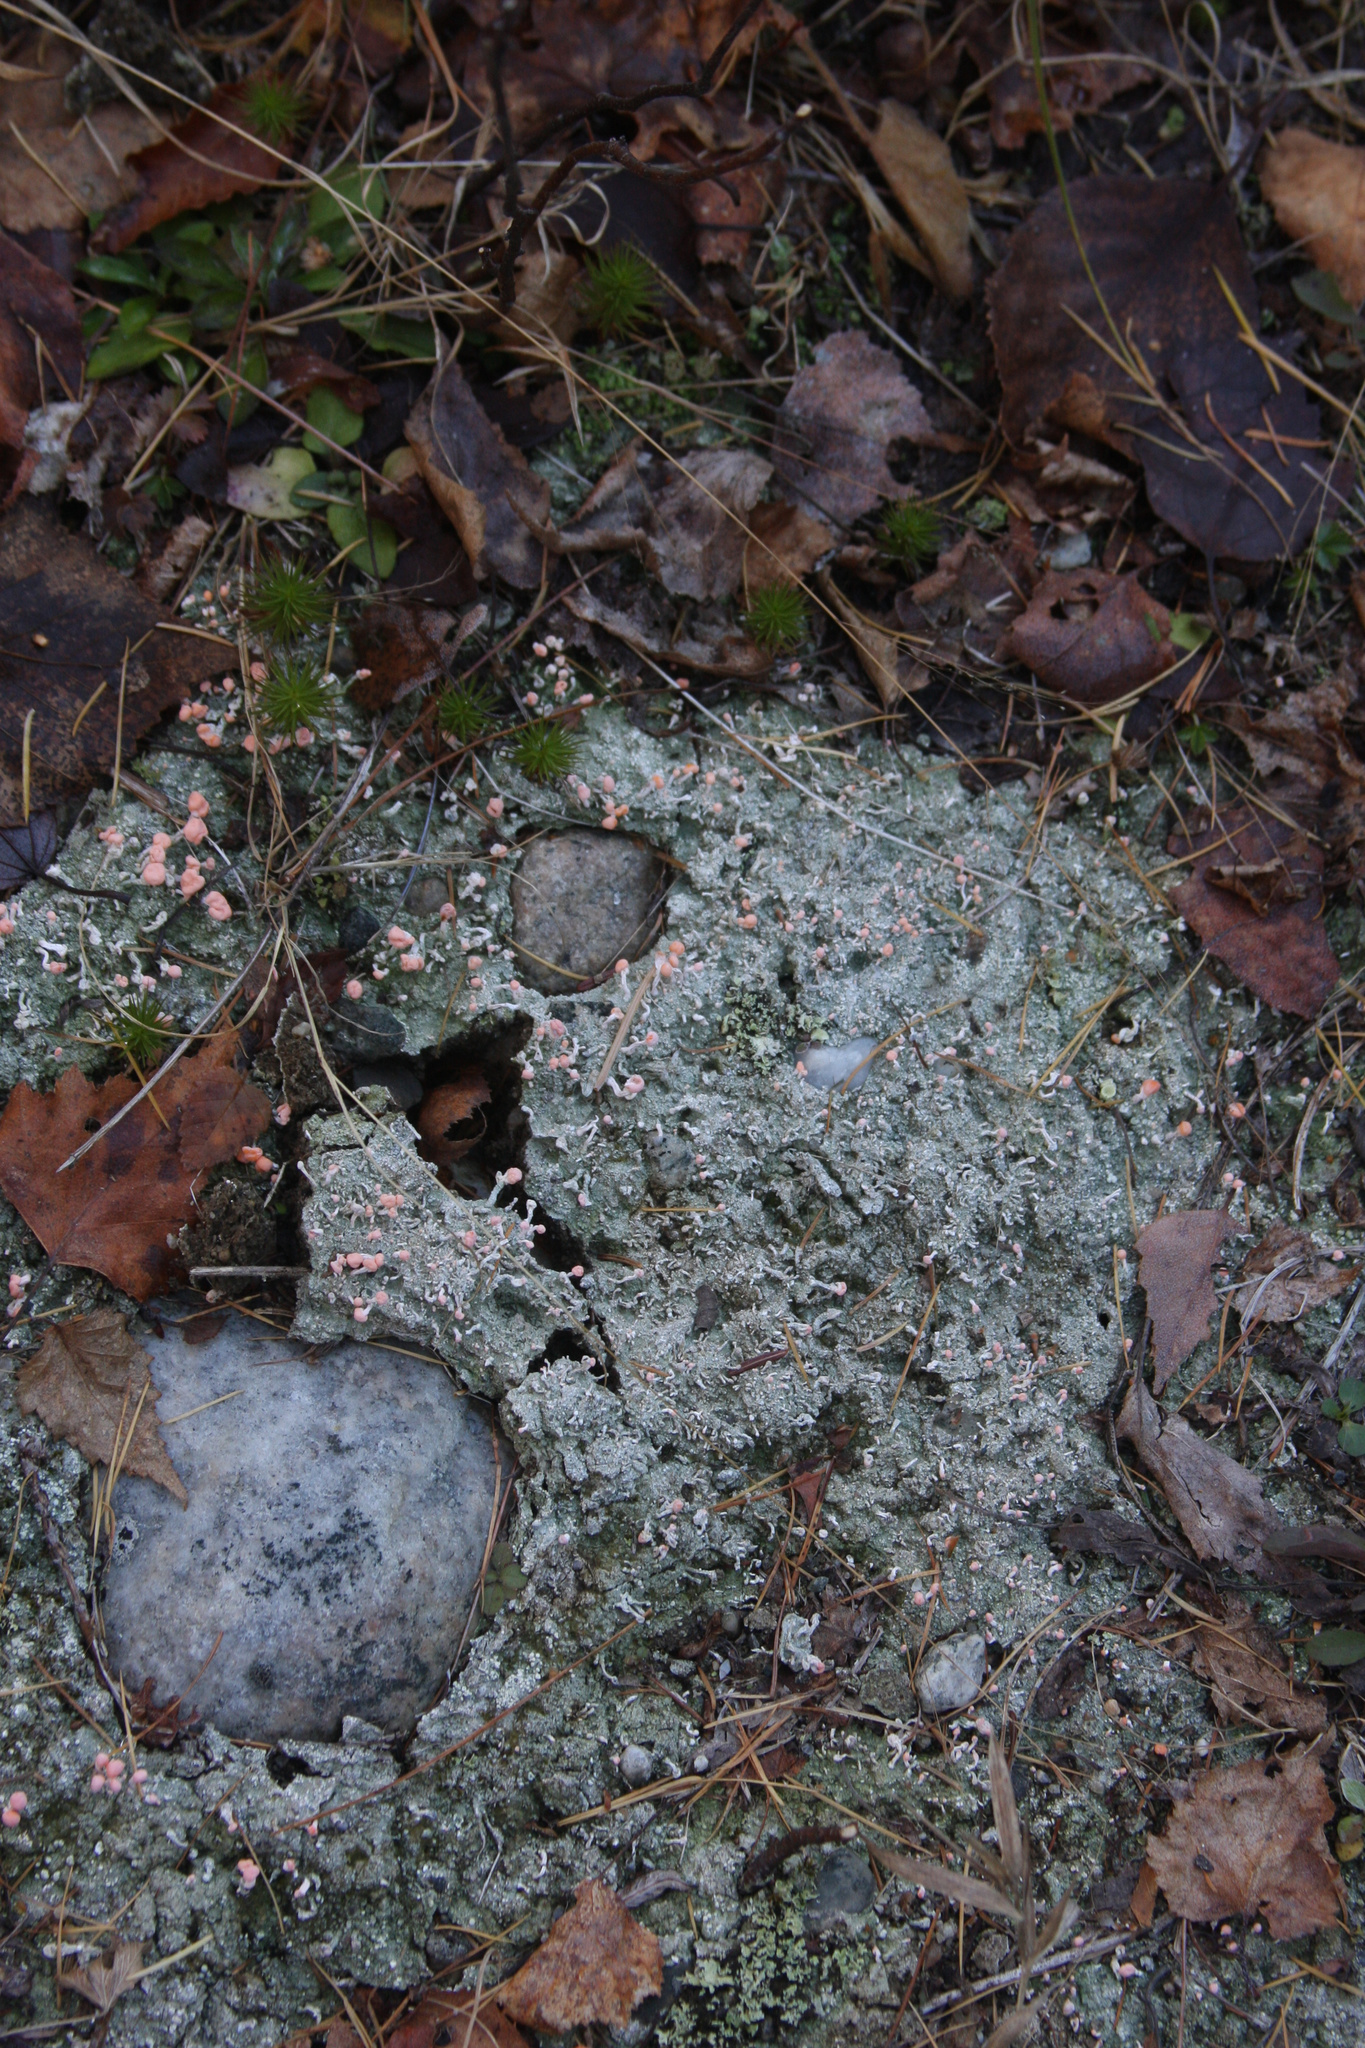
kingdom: Fungi
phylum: Ascomycota
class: Lecanoromycetes
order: Pertusariales
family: Icmadophilaceae
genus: Dibaeis
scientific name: Dibaeis baeomyces
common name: Pink earth lichen
